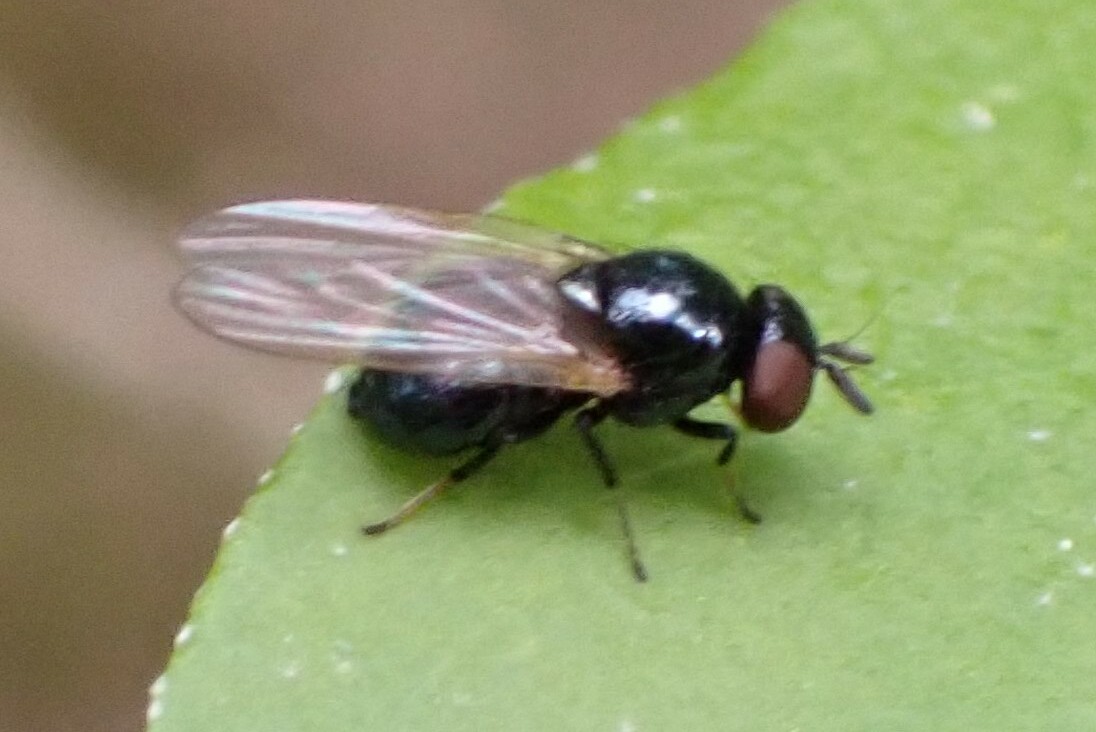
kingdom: Animalia
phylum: Arthropoda
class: Insecta
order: Diptera
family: Lonchaeidae
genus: Lonchaea
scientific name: Lonchaea
